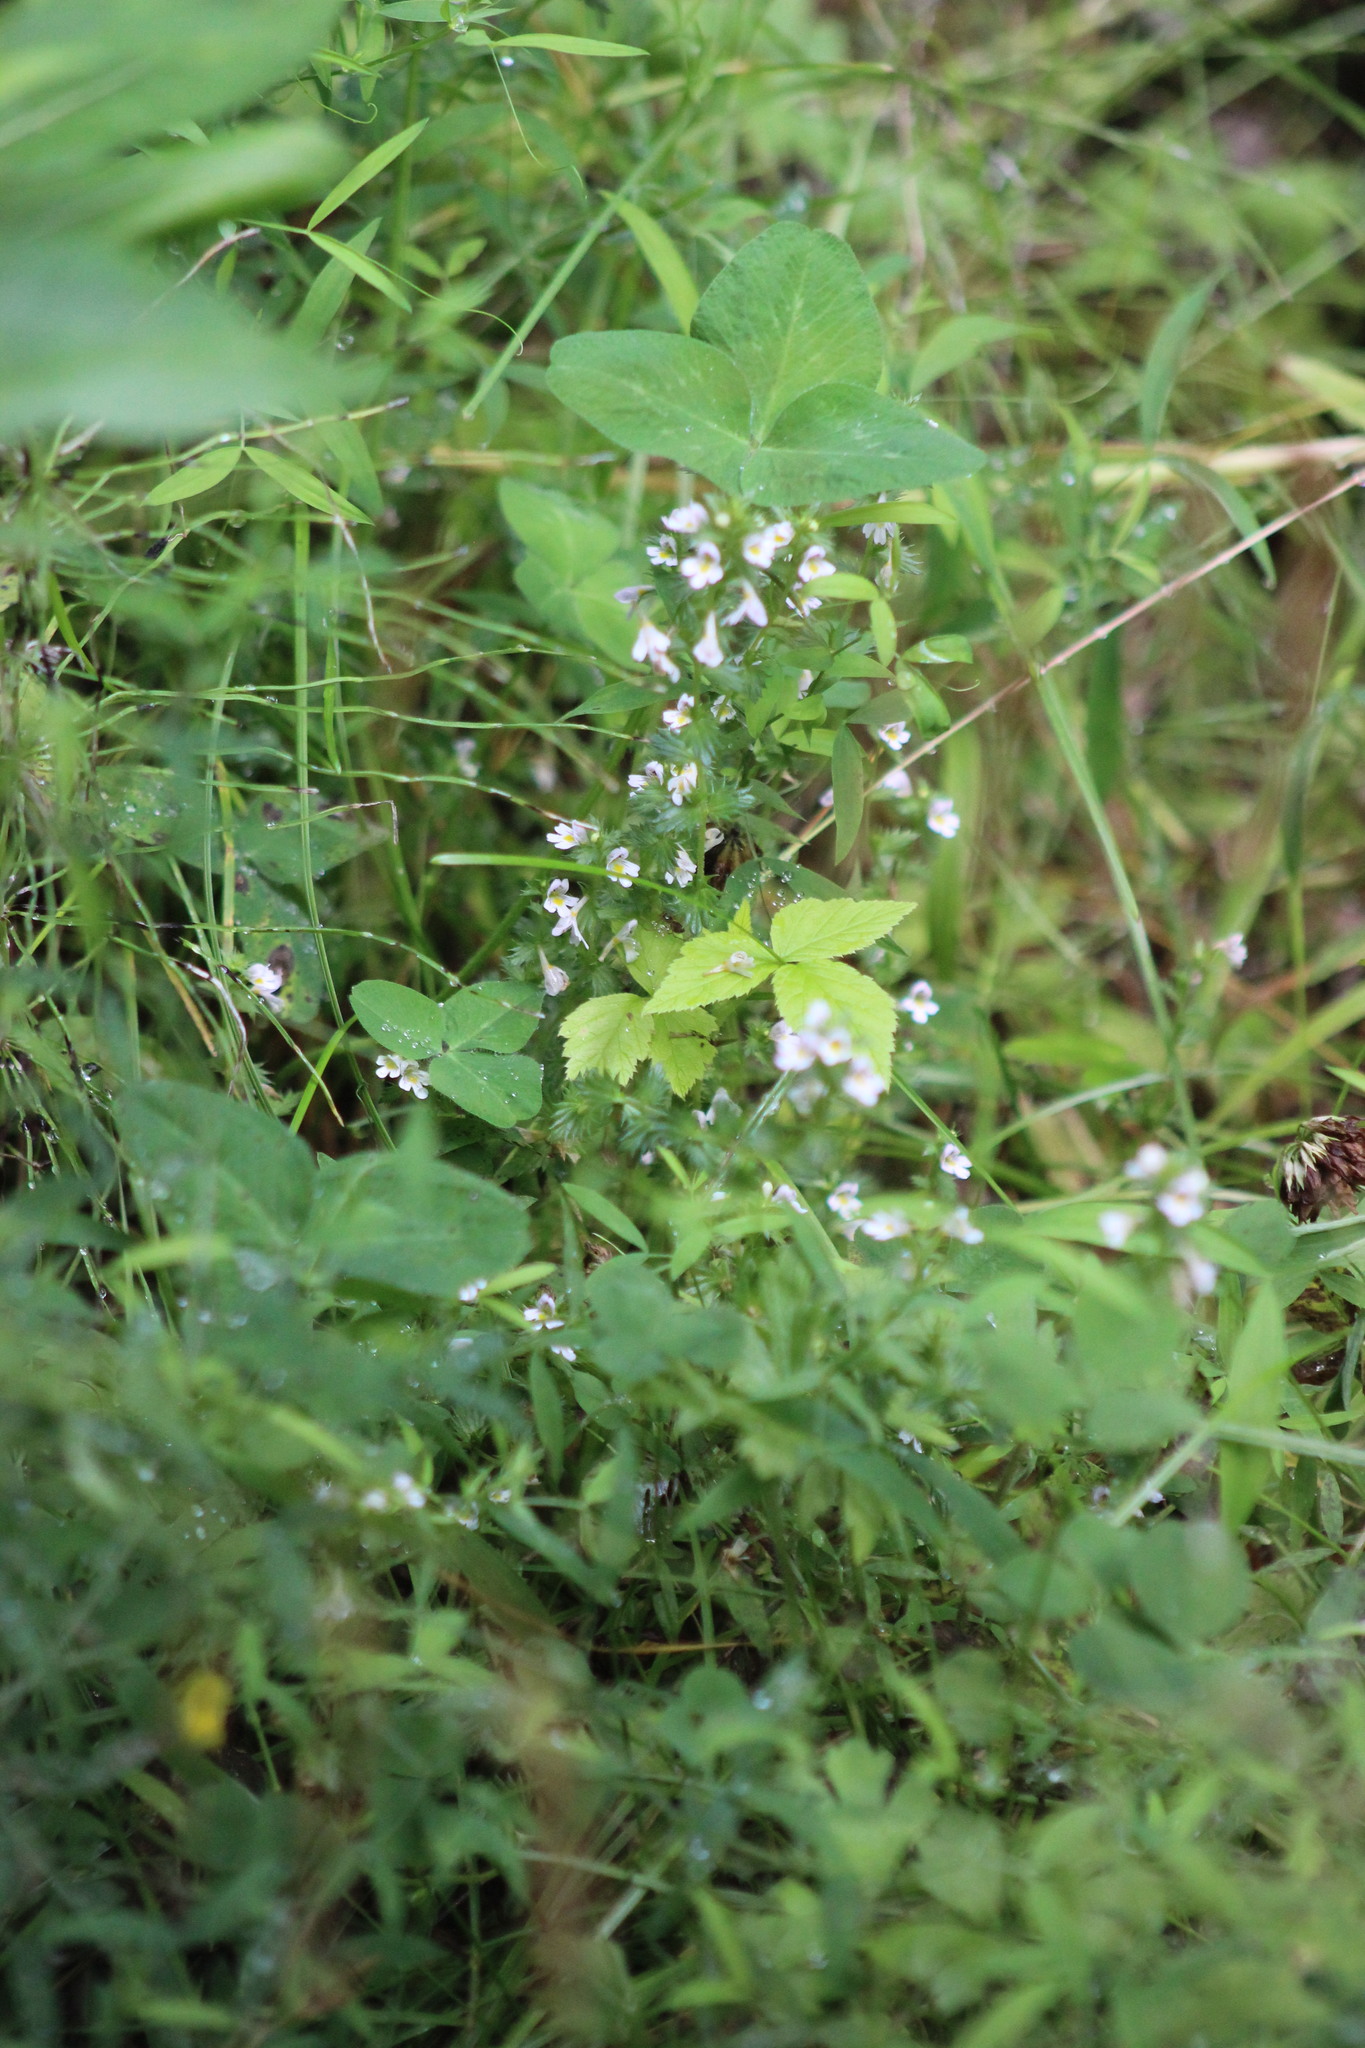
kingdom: Plantae
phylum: Tracheophyta
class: Magnoliopsida
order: Lamiales
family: Orobanchaceae
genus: Euphrasia
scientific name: Euphrasia
